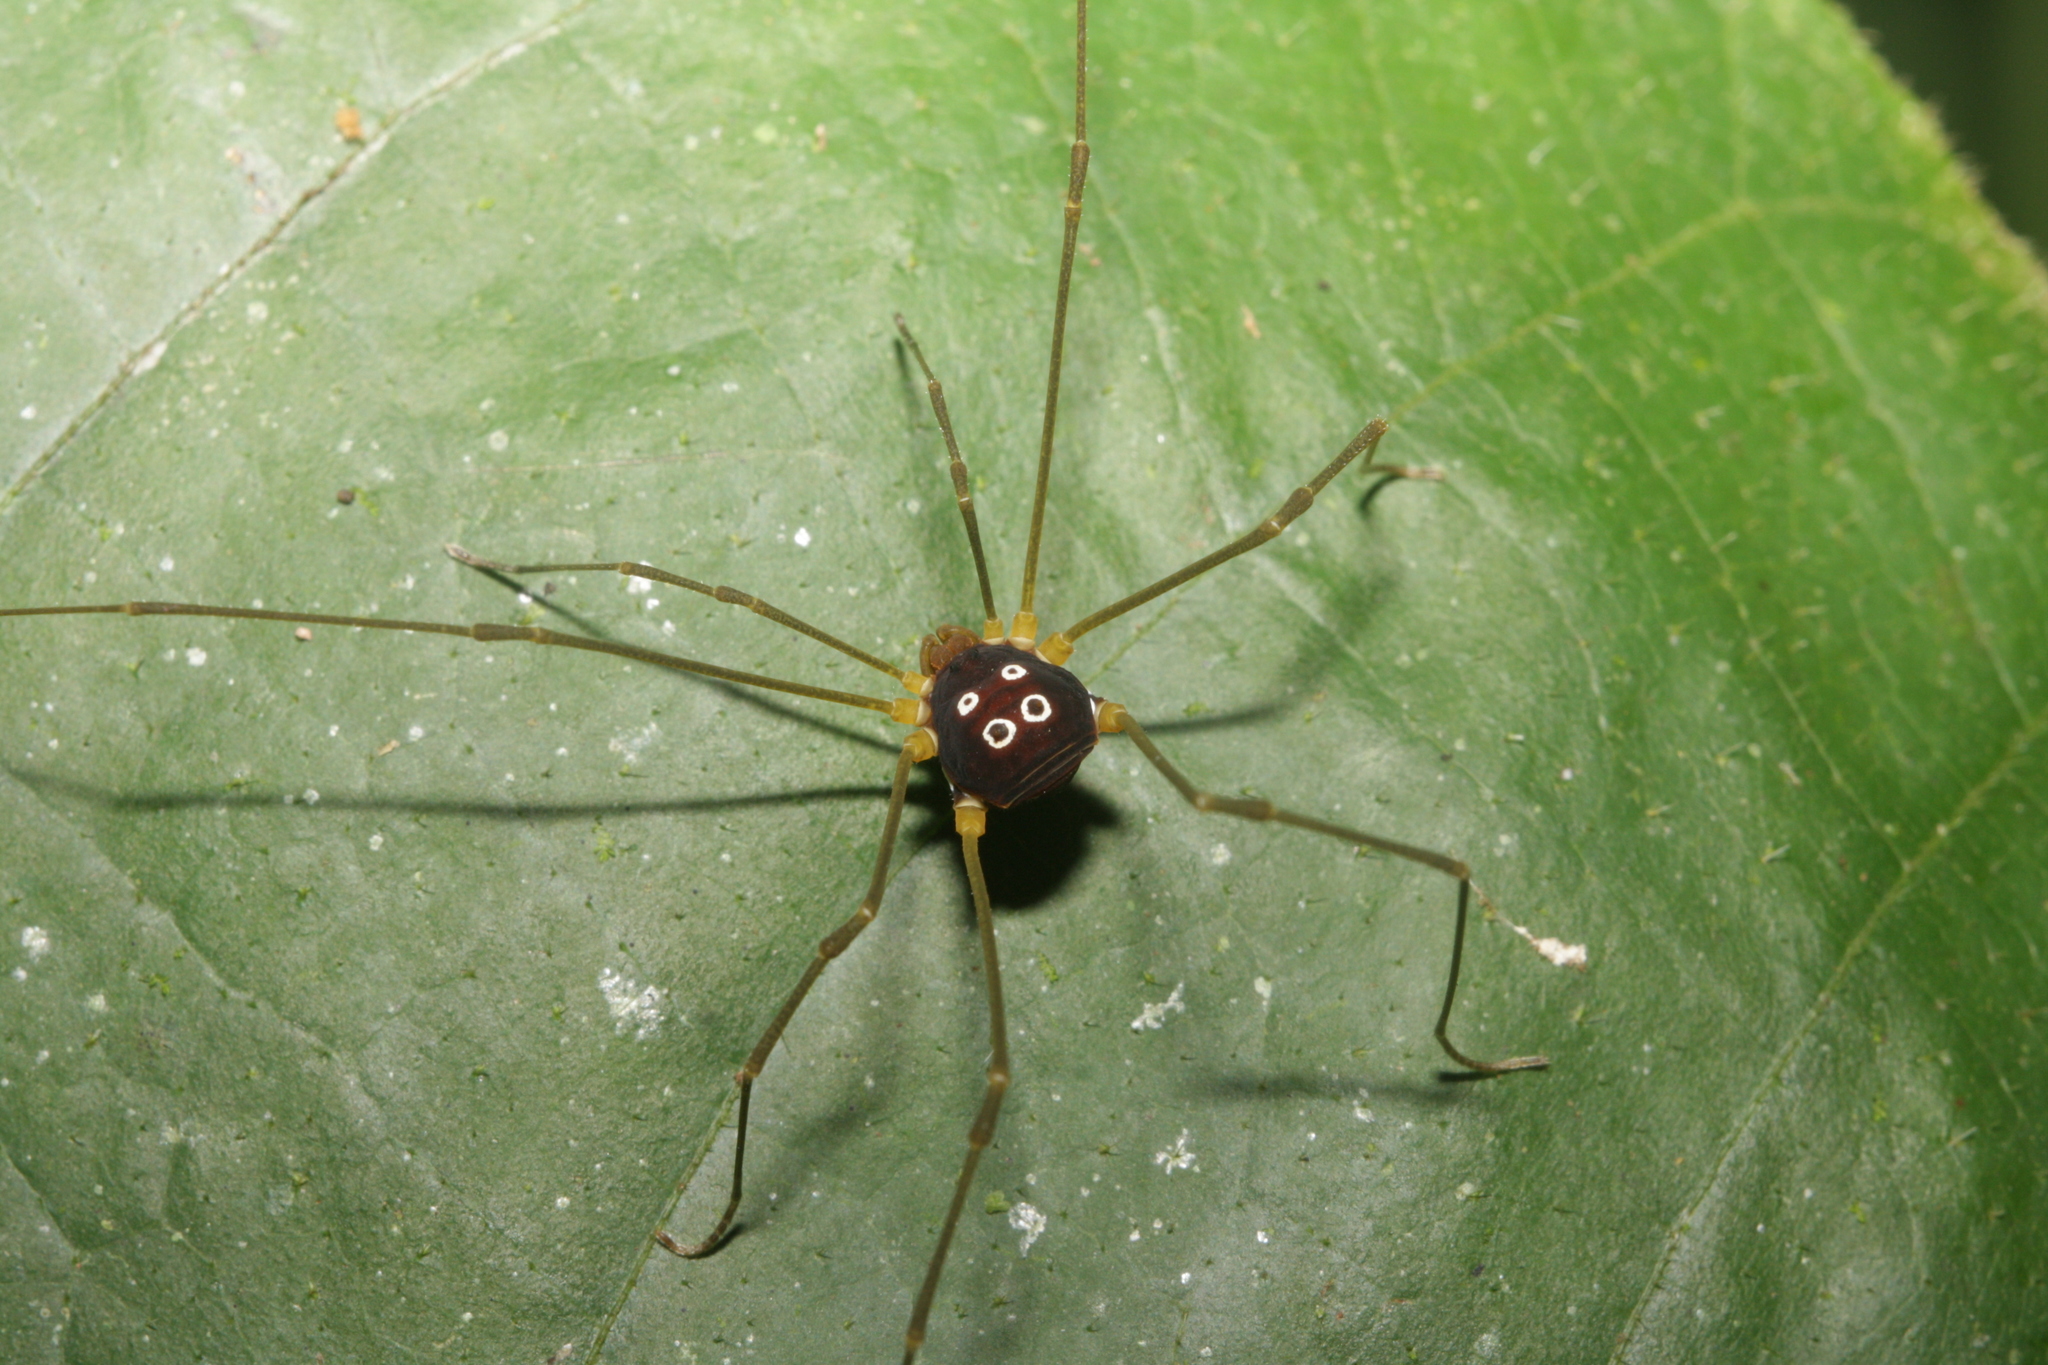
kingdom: Animalia
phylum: Arthropoda
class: Arachnida
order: Opiliones
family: Cosmetidae
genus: Cynortellana
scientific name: Cynortellana oculata
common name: Harvestmen
